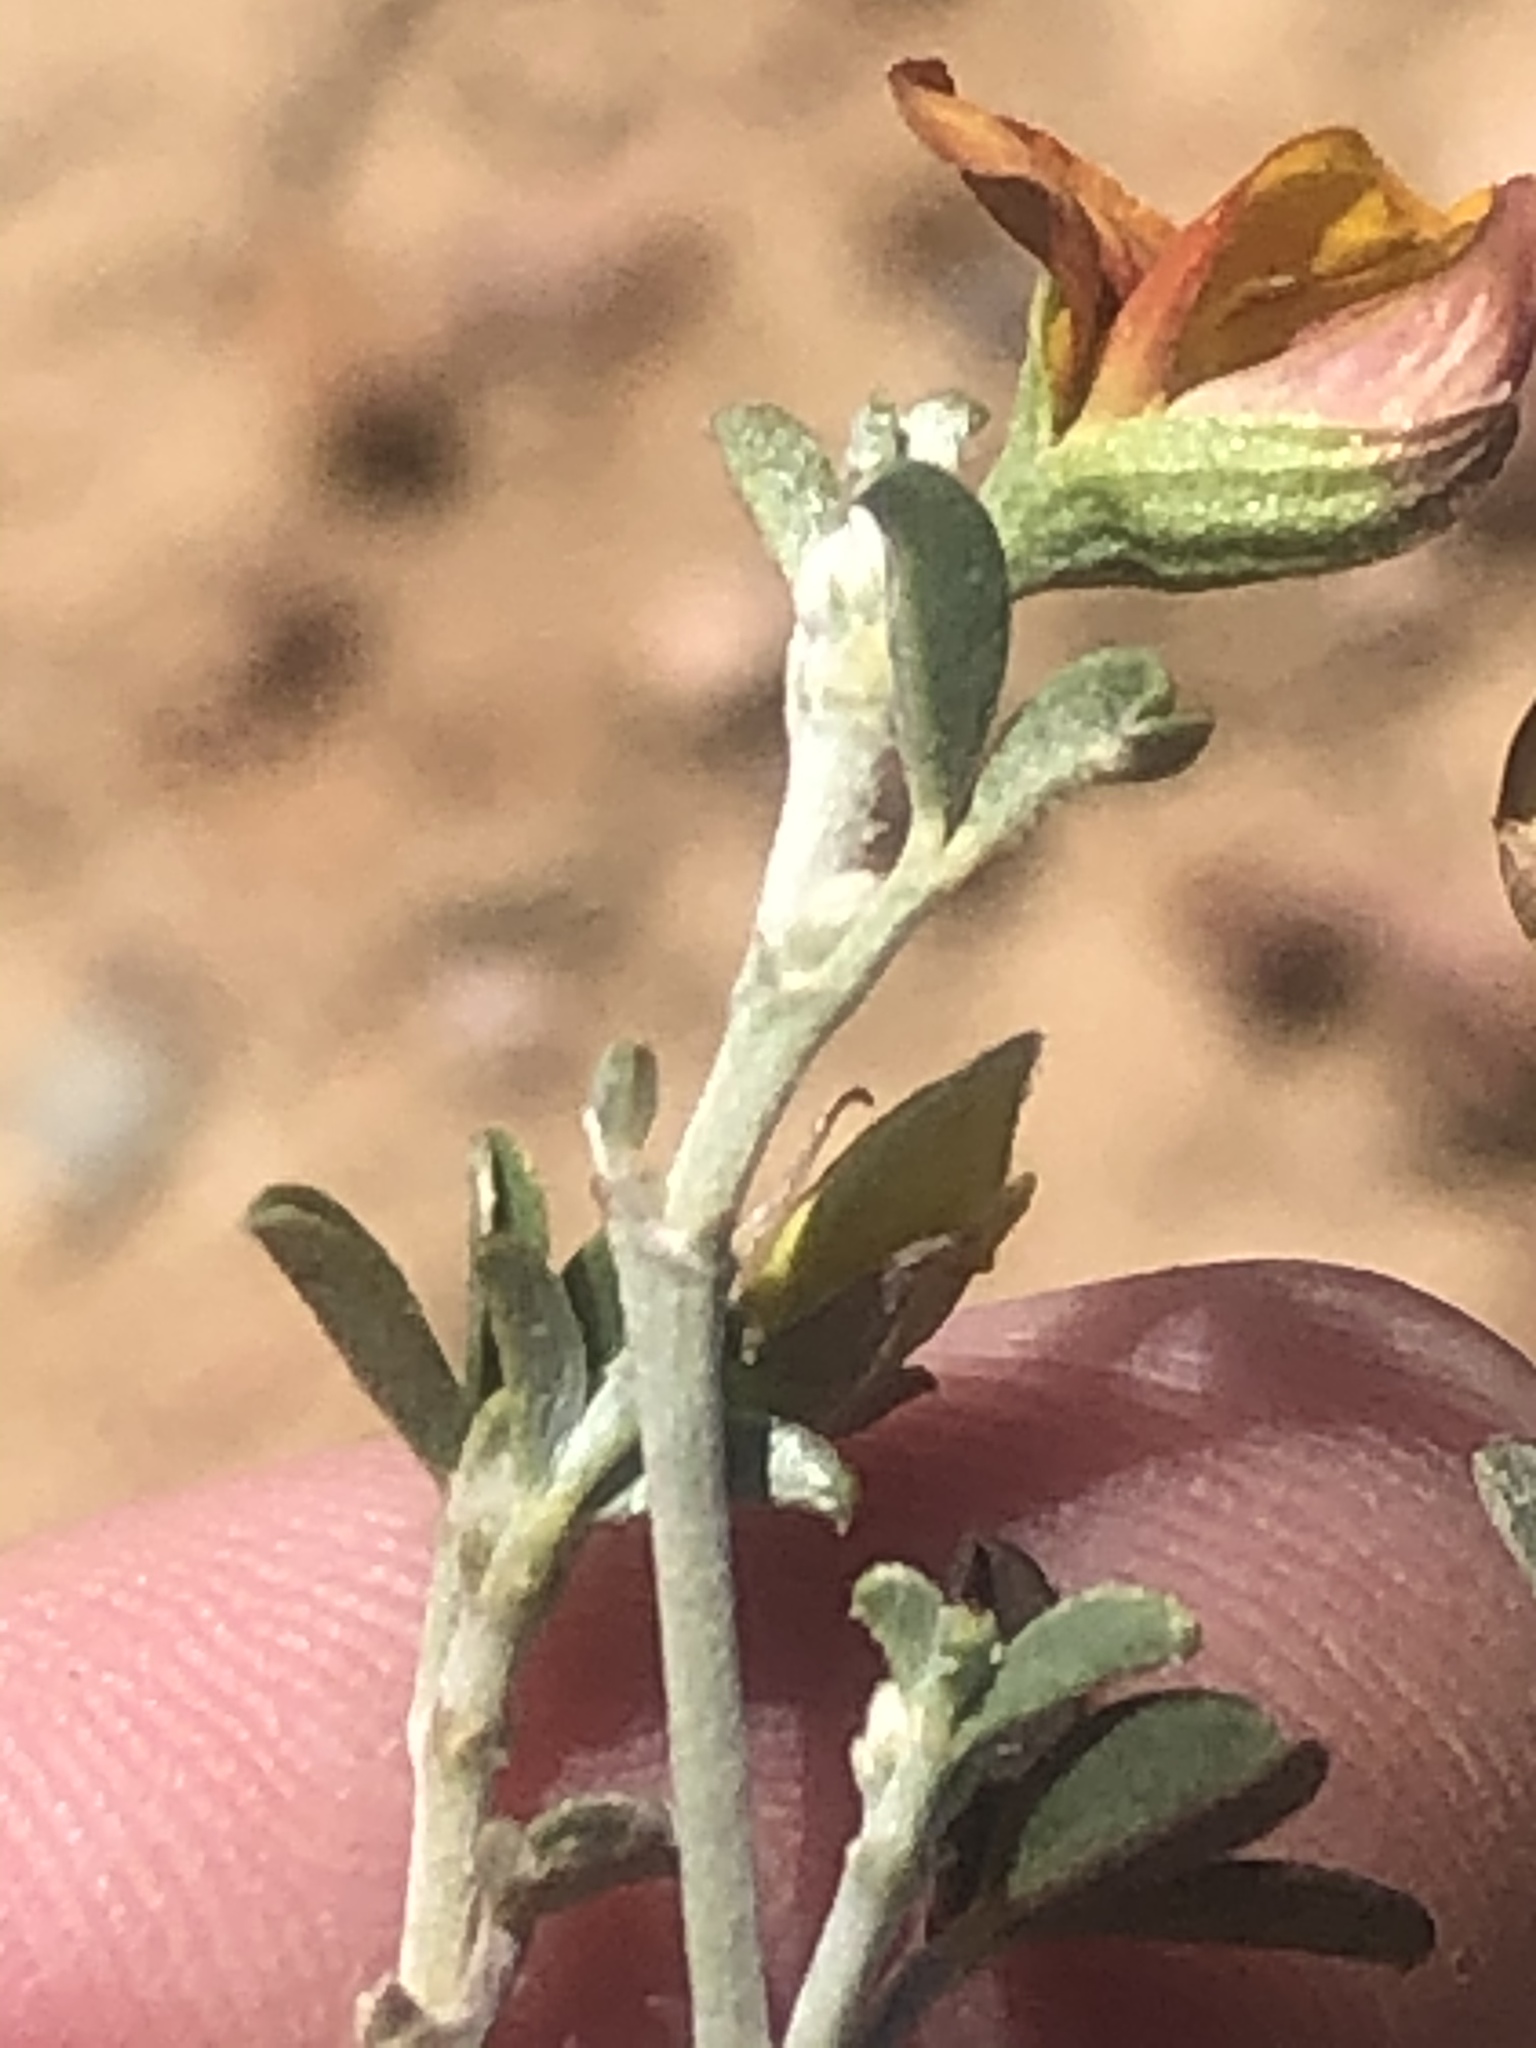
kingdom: Plantae
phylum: Tracheophyta
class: Magnoliopsida
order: Fabales
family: Fabaceae
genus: Argyrolobium
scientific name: Argyrolobium argenteum
